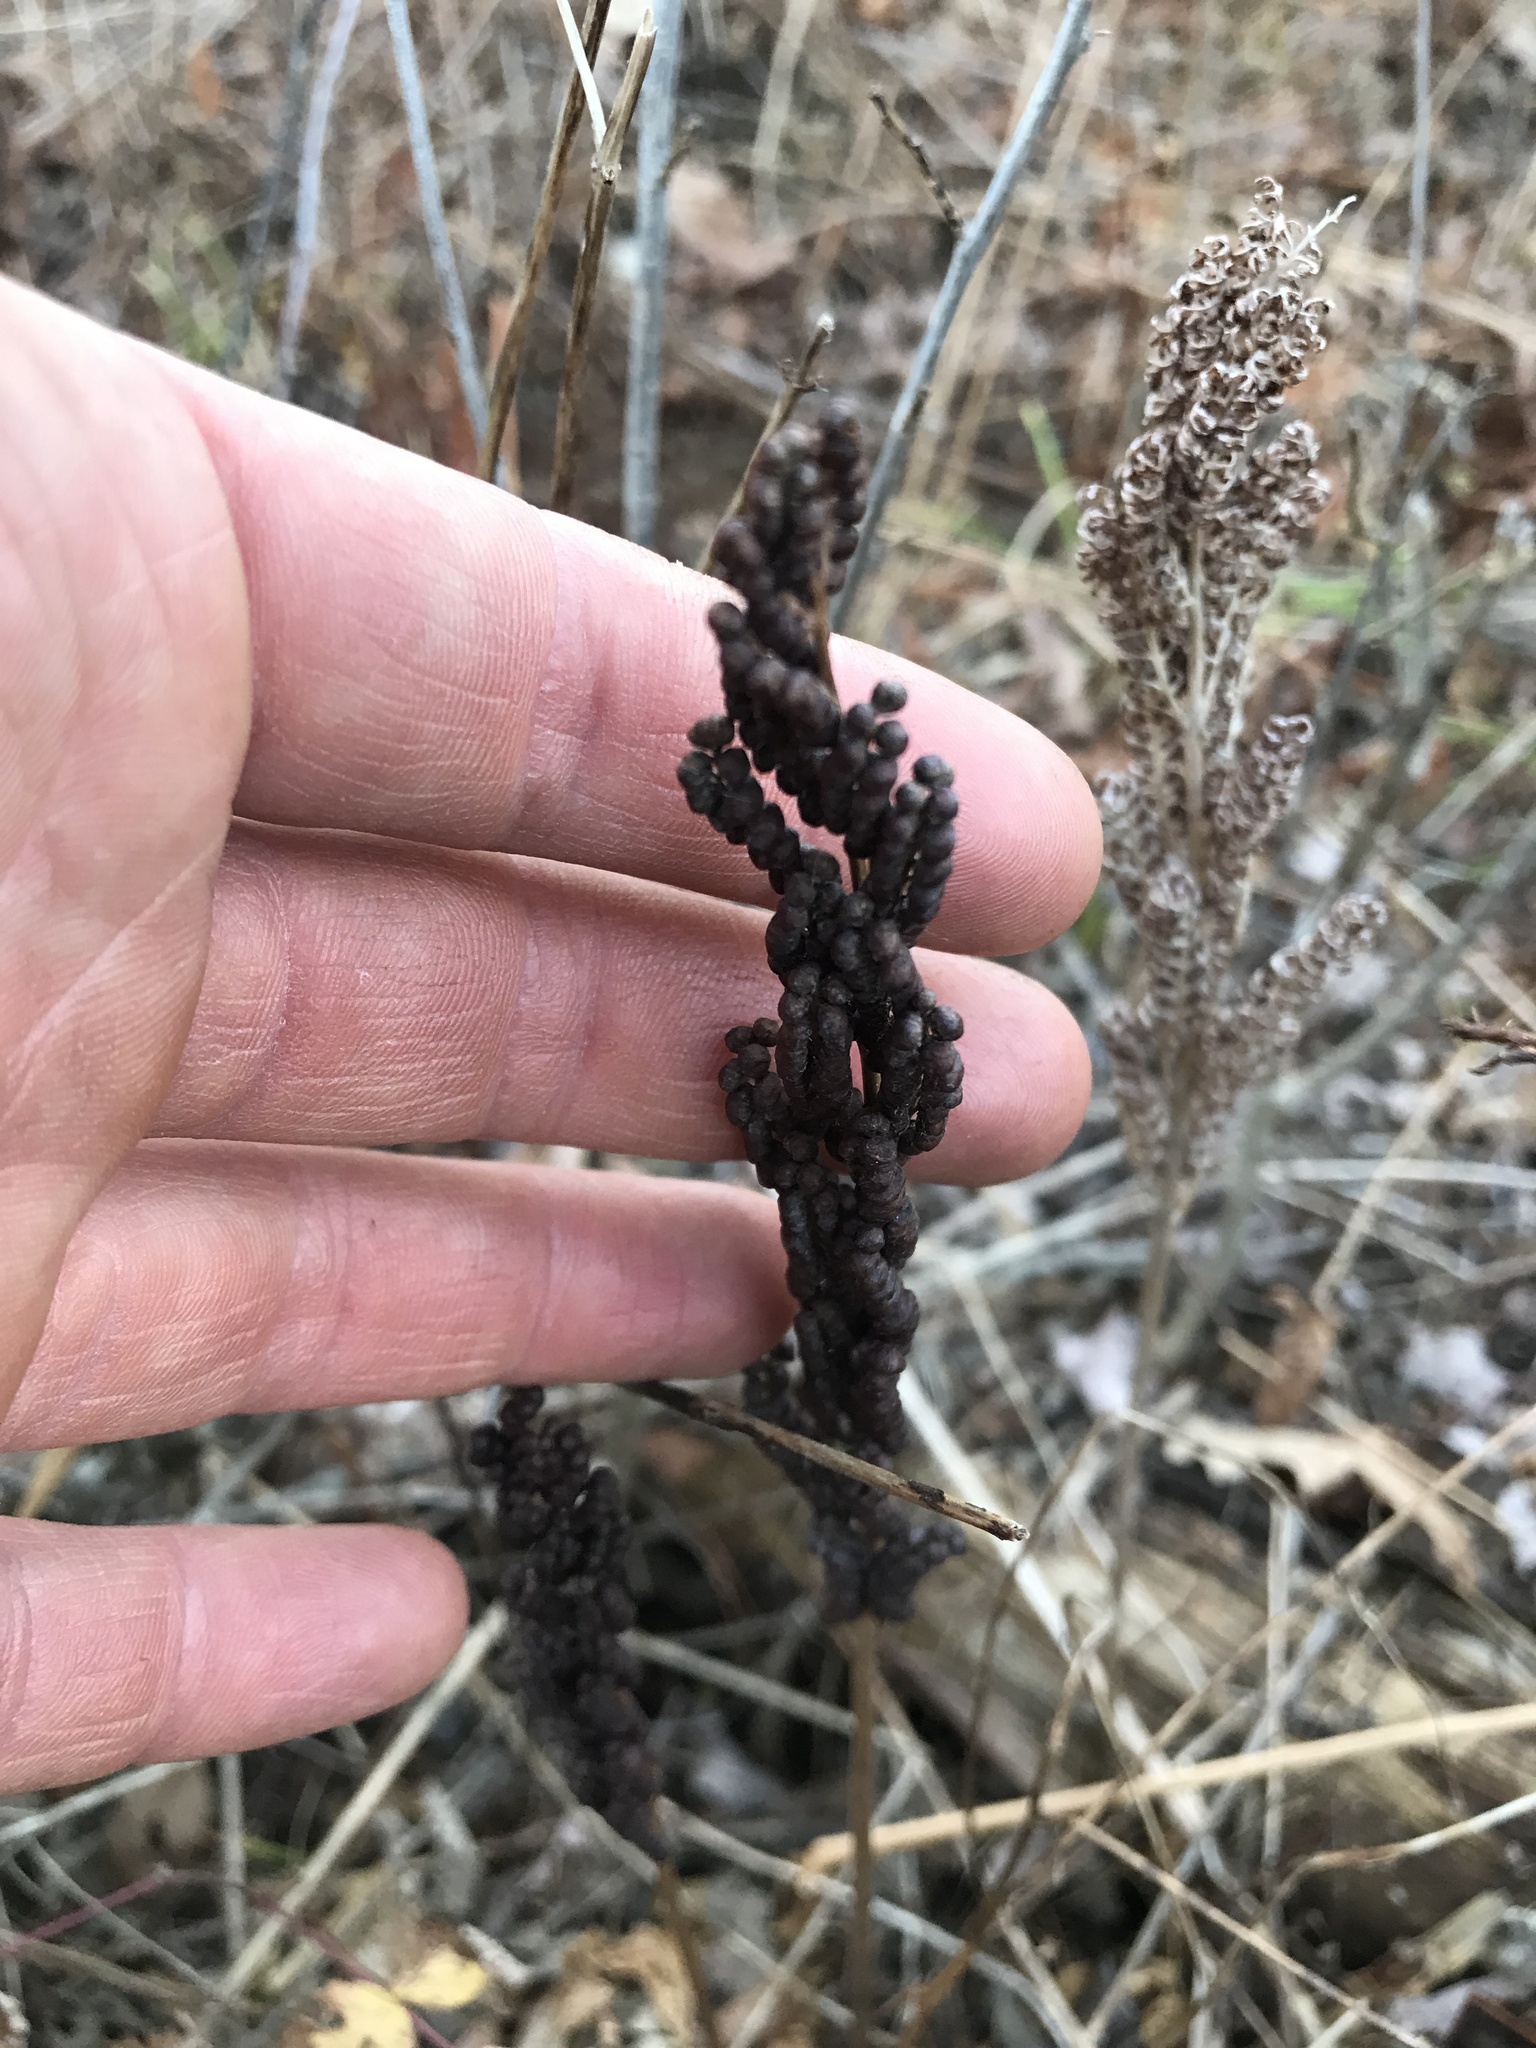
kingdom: Plantae
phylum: Tracheophyta
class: Polypodiopsida
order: Polypodiales
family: Onocleaceae
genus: Onoclea
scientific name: Onoclea sensibilis
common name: Sensitive fern
